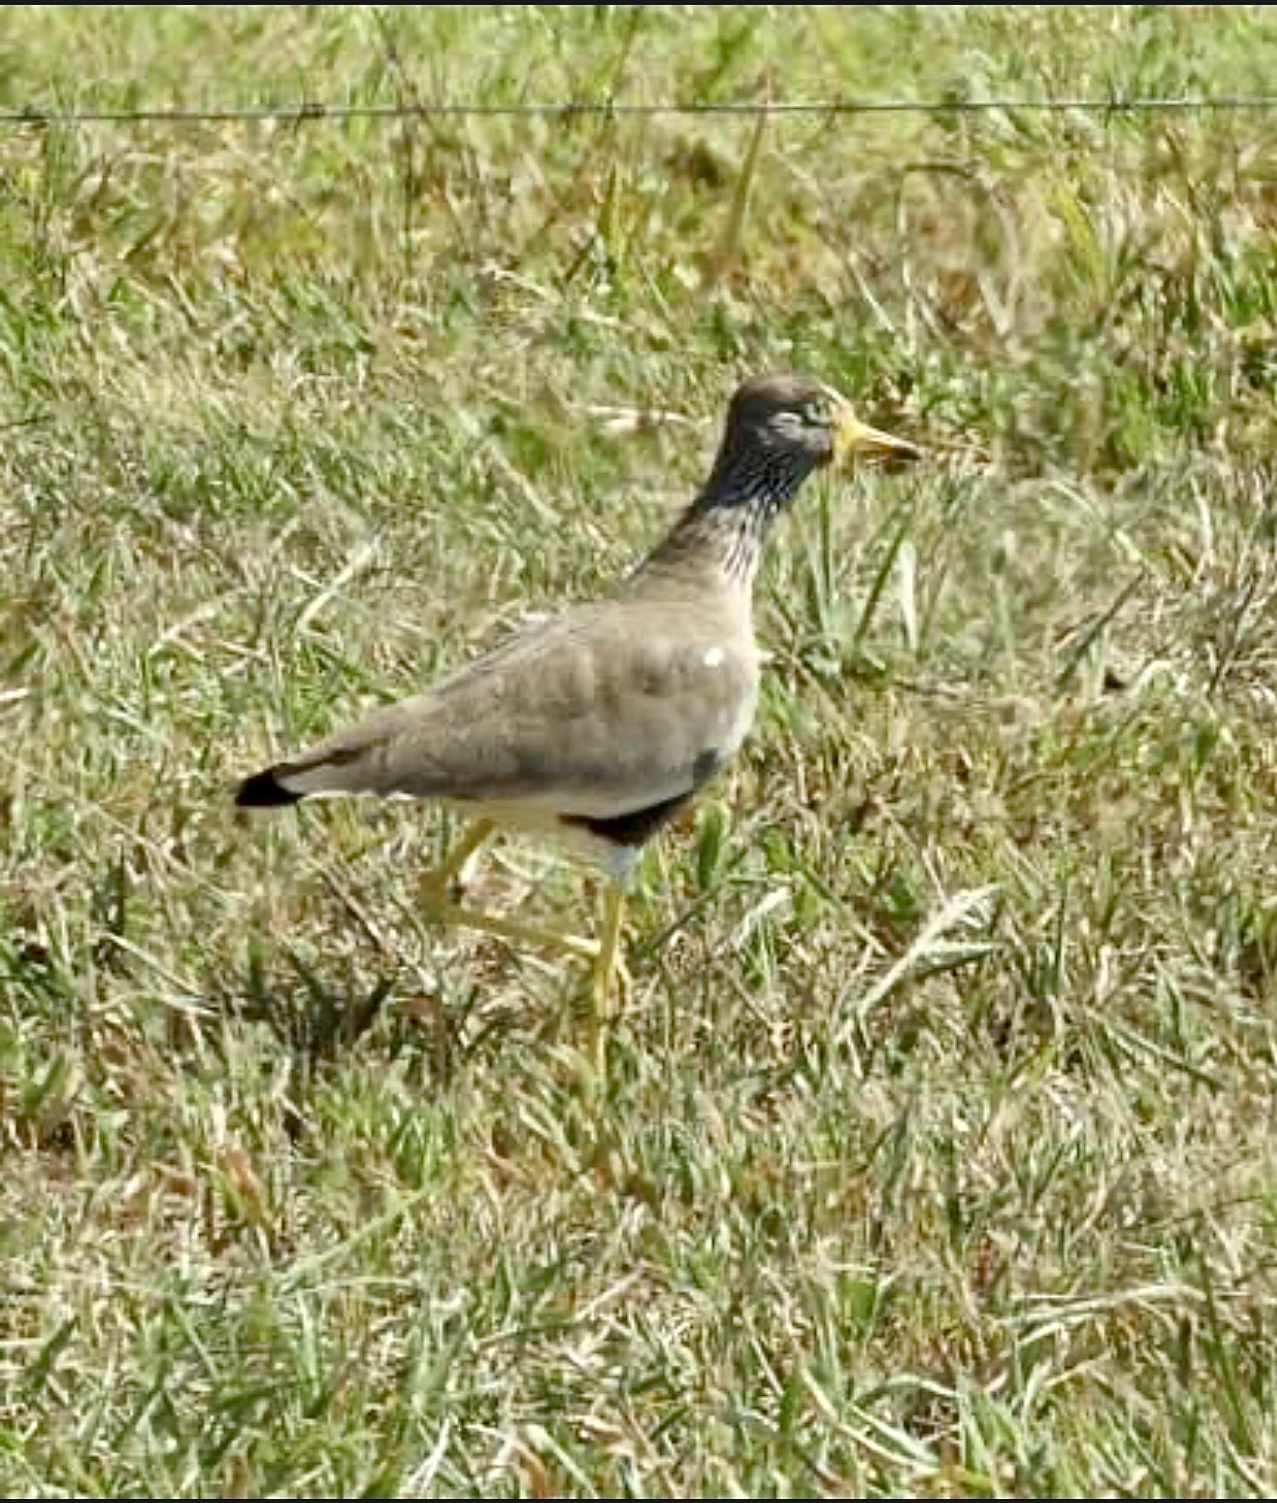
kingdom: Animalia
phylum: Chordata
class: Aves
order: Charadriiformes
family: Charadriidae
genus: Vanellus
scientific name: Vanellus senegallus
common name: African wattled lapwing
